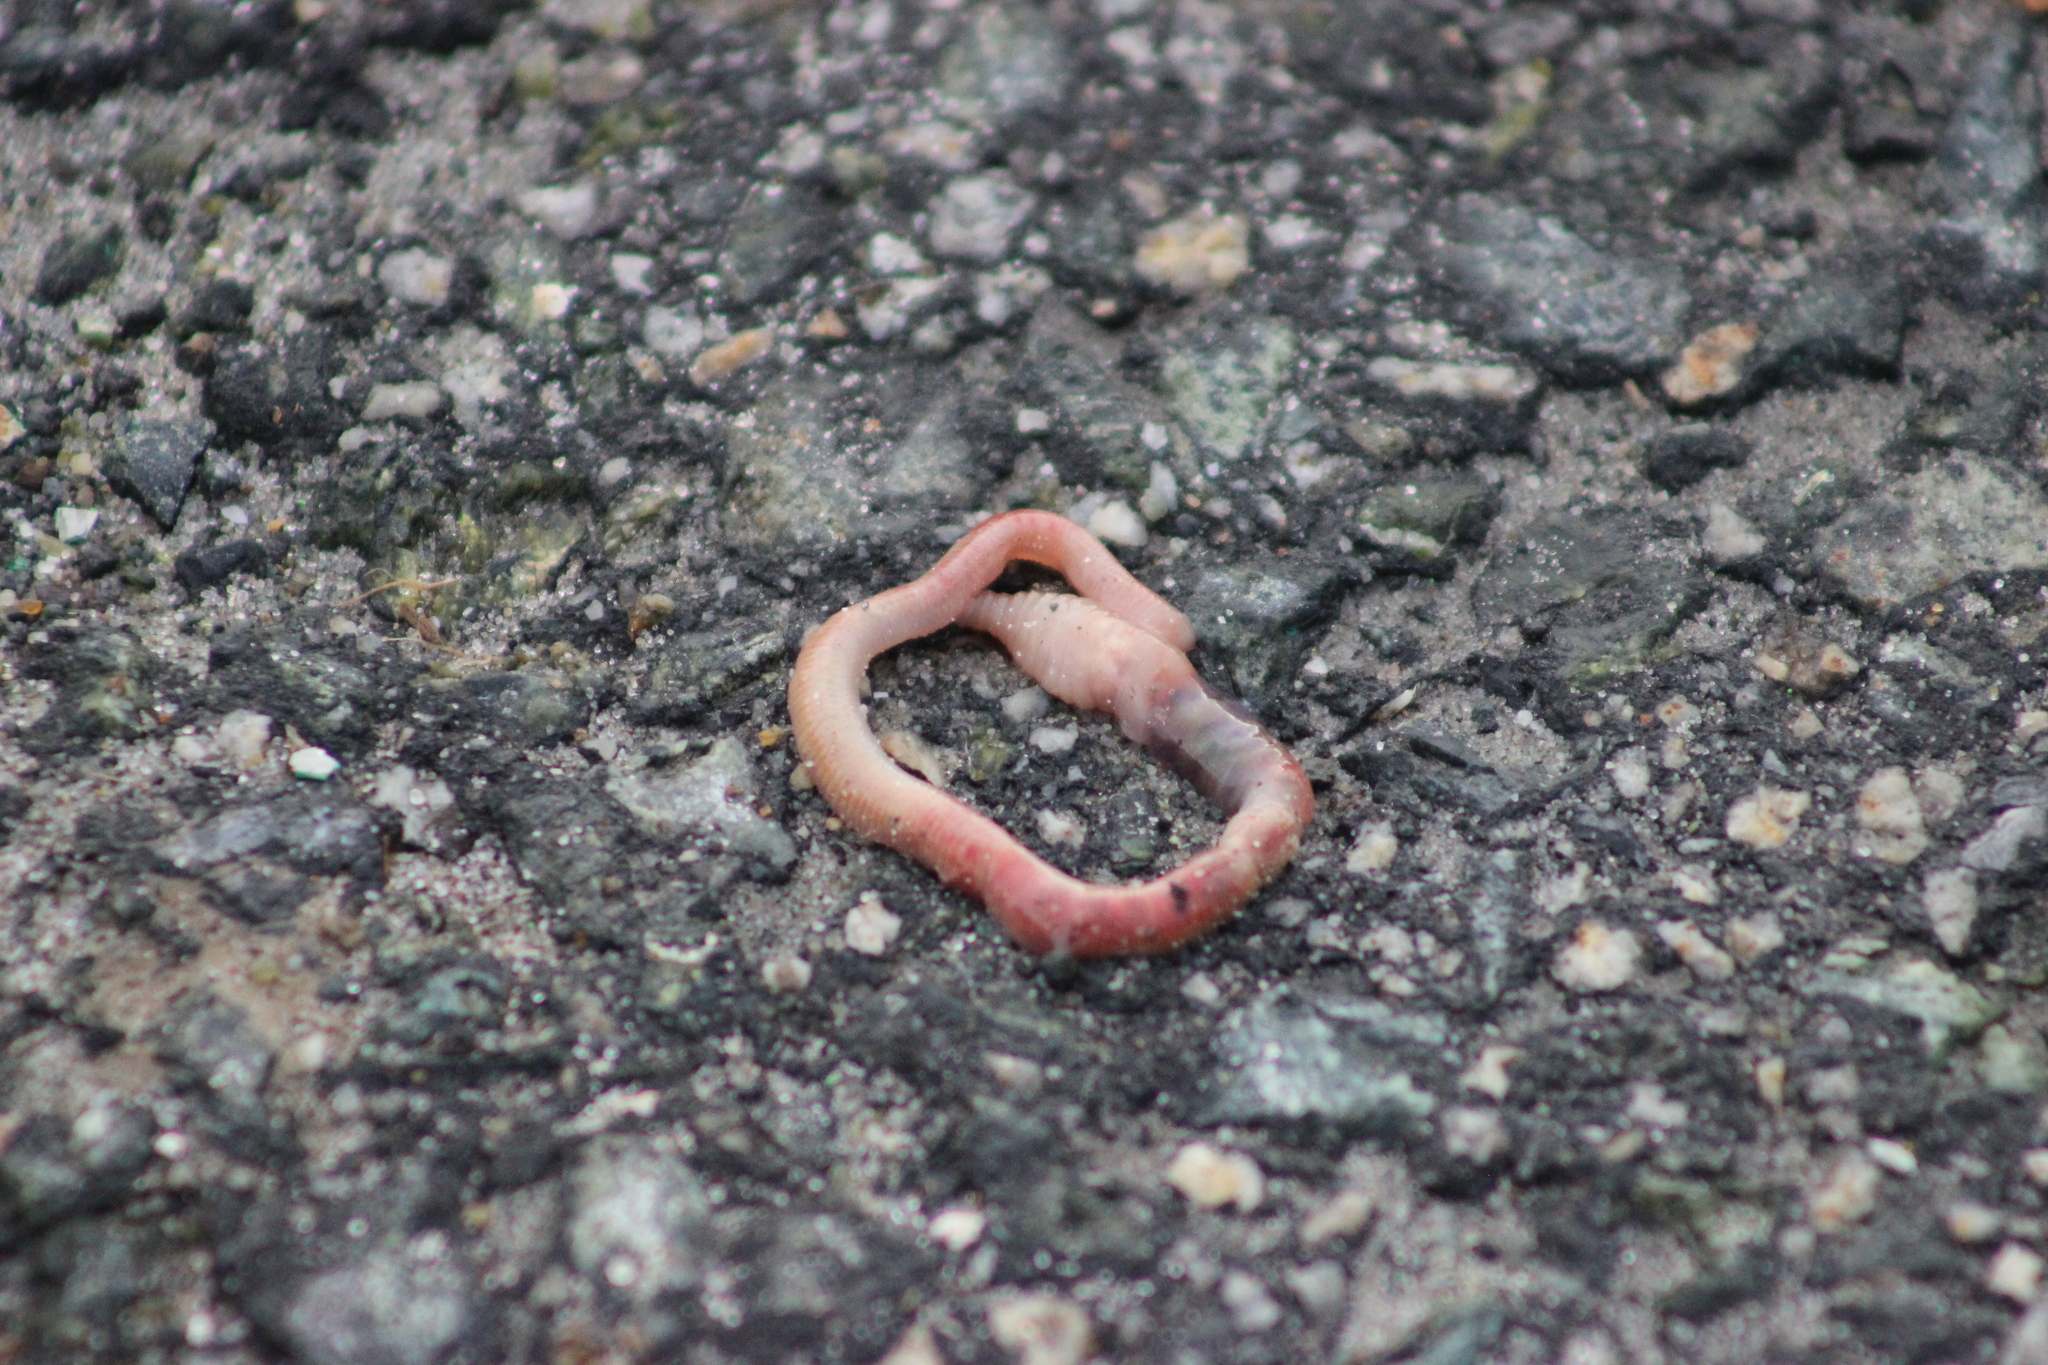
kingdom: Animalia
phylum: Annelida
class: Clitellata
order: Crassiclitellata
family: Lumbricidae
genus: Aporrectodea
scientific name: Aporrectodea rosea
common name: Pink soilworm
